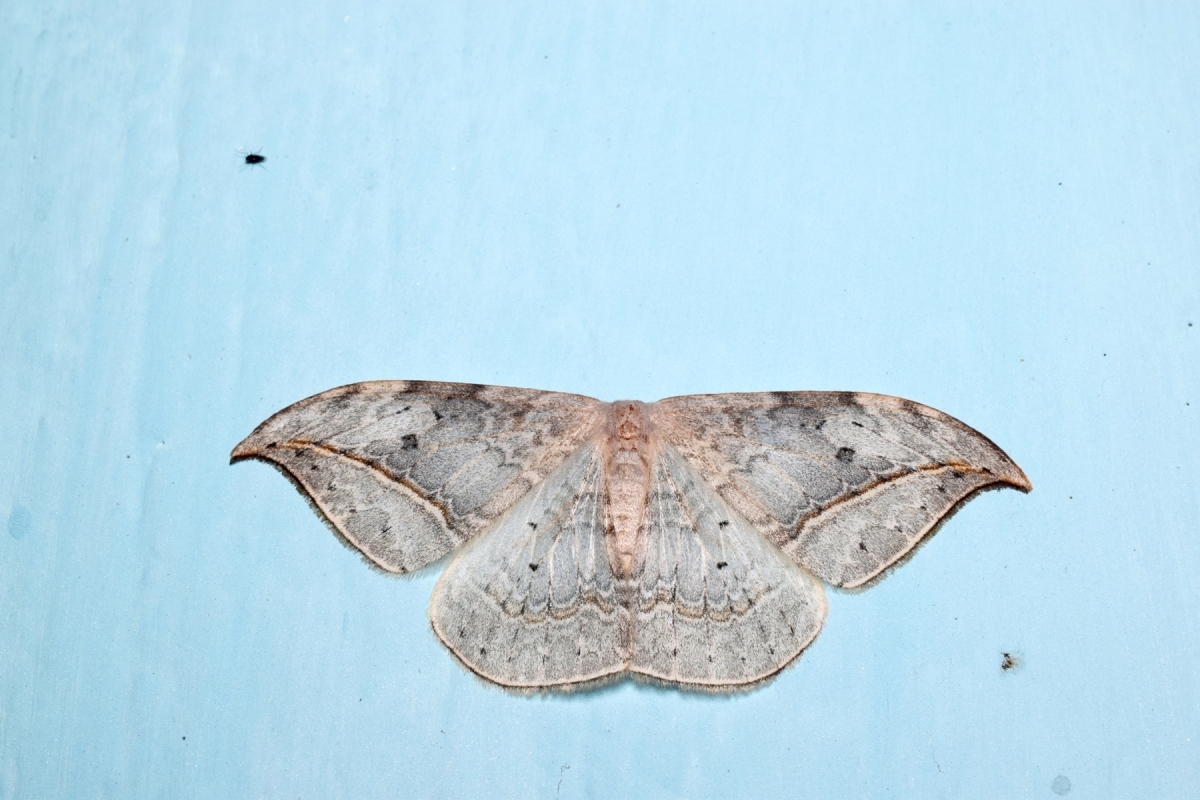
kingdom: Animalia
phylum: Arthropoda
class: Insecta
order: Lepidoptera
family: Drepanidae
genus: Drepana
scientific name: Drepana pallida
